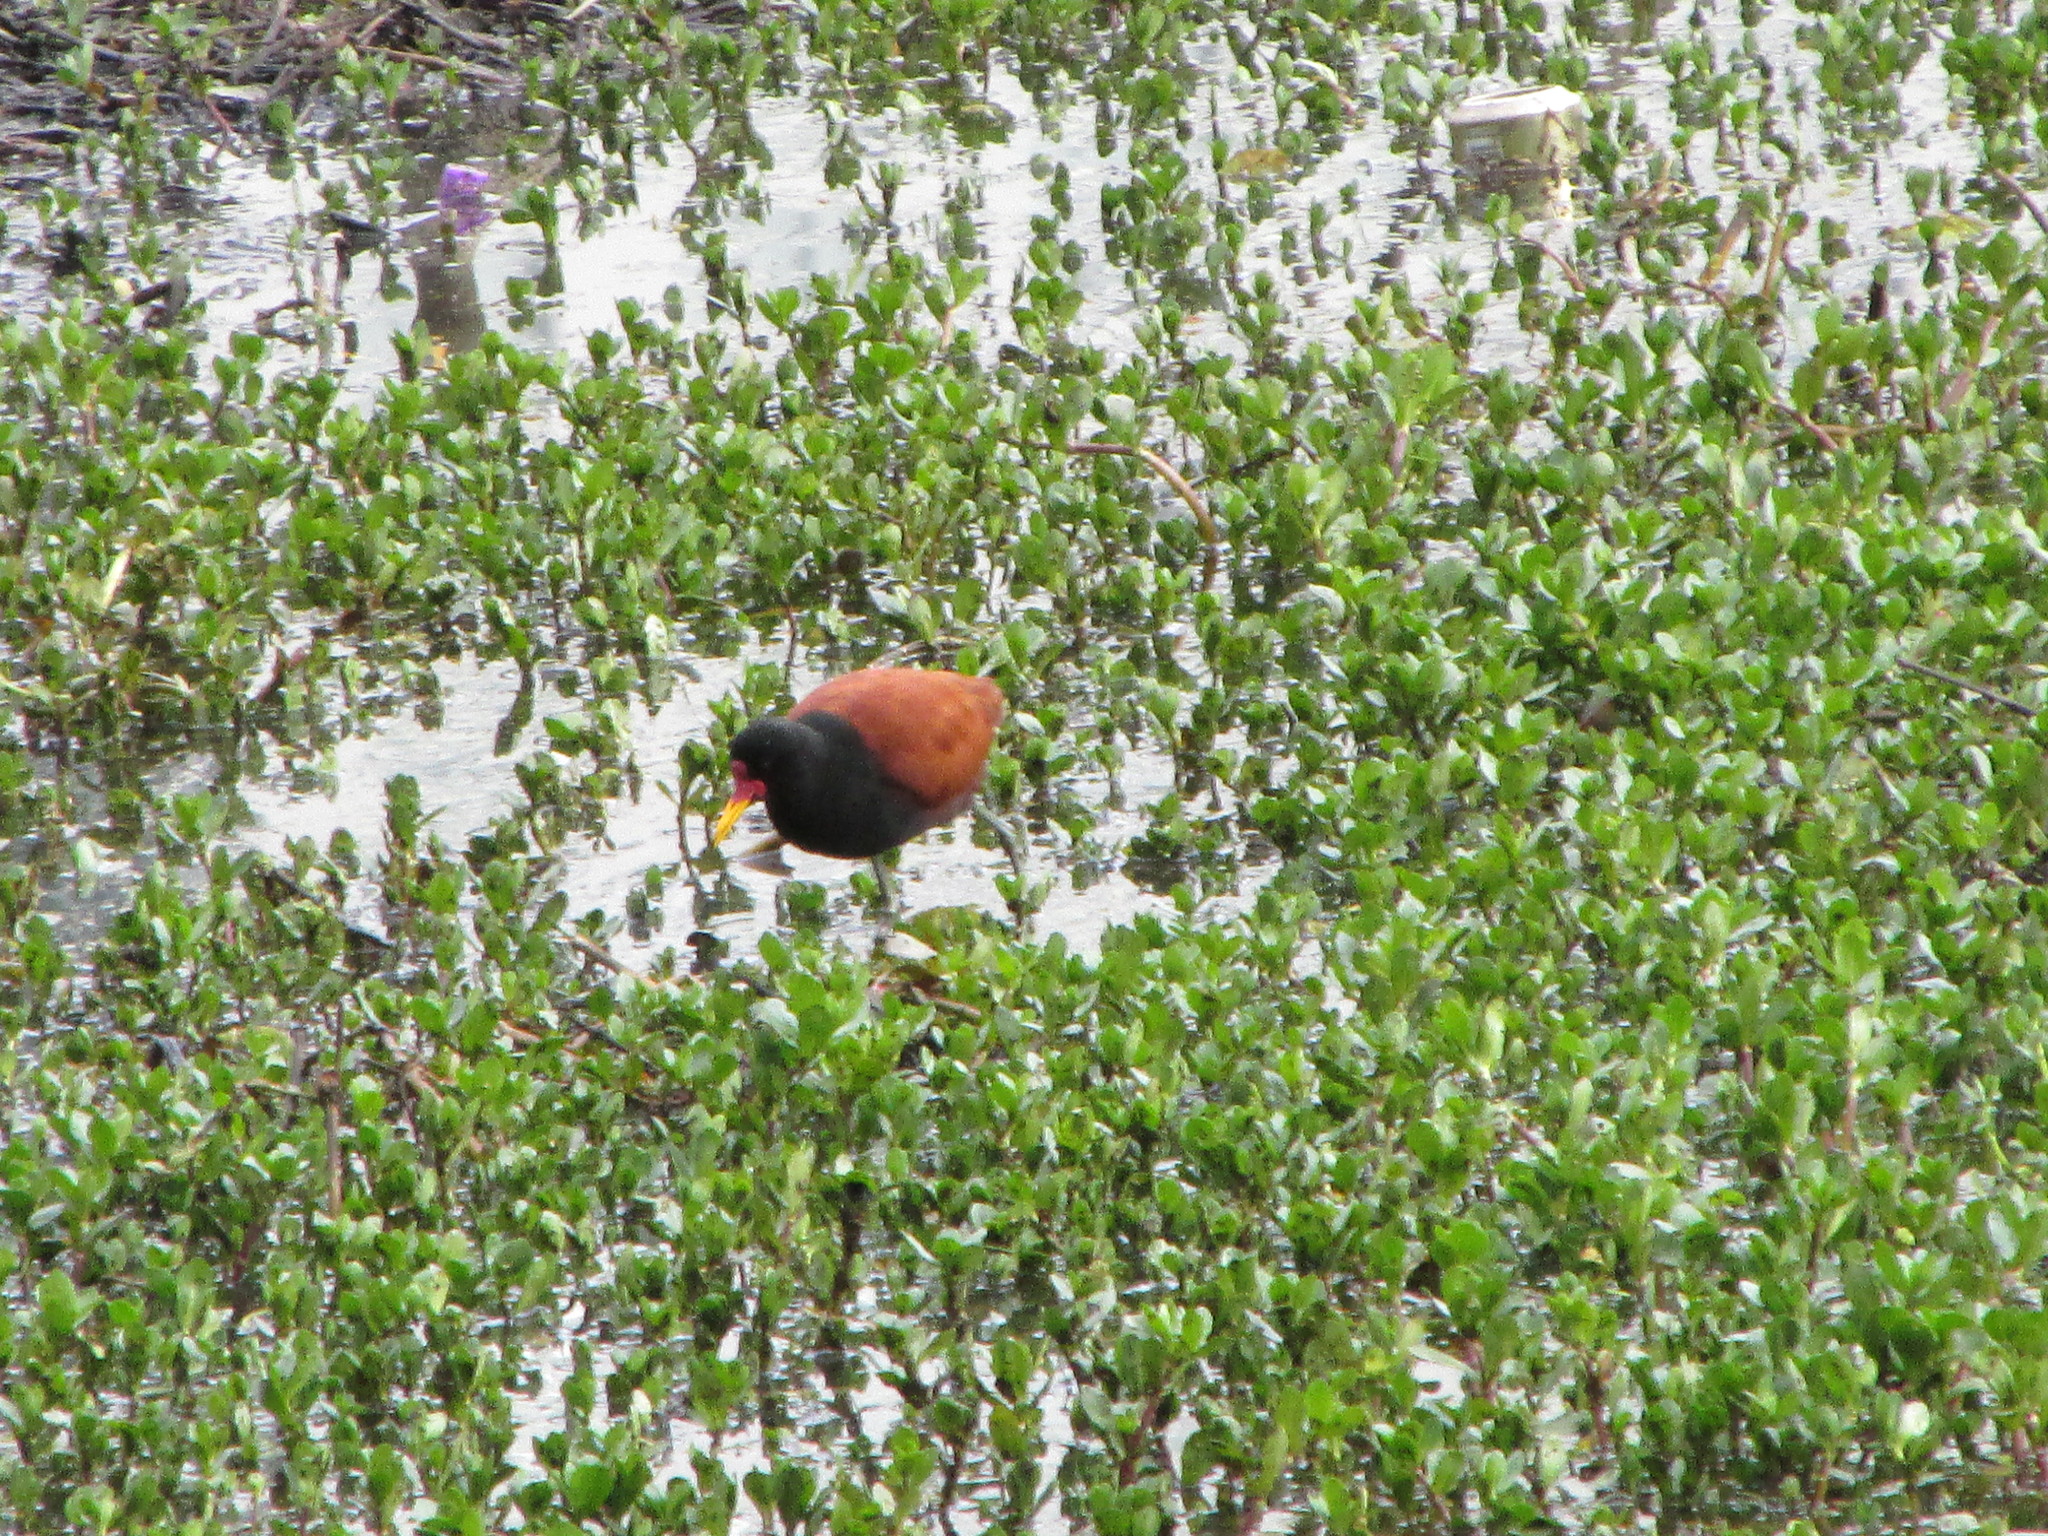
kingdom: Animalia
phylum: Chordata
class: Aves
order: Charadriiformes
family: Jacanidae
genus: Jacana
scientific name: Jacana jacana
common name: Wattled jacana
